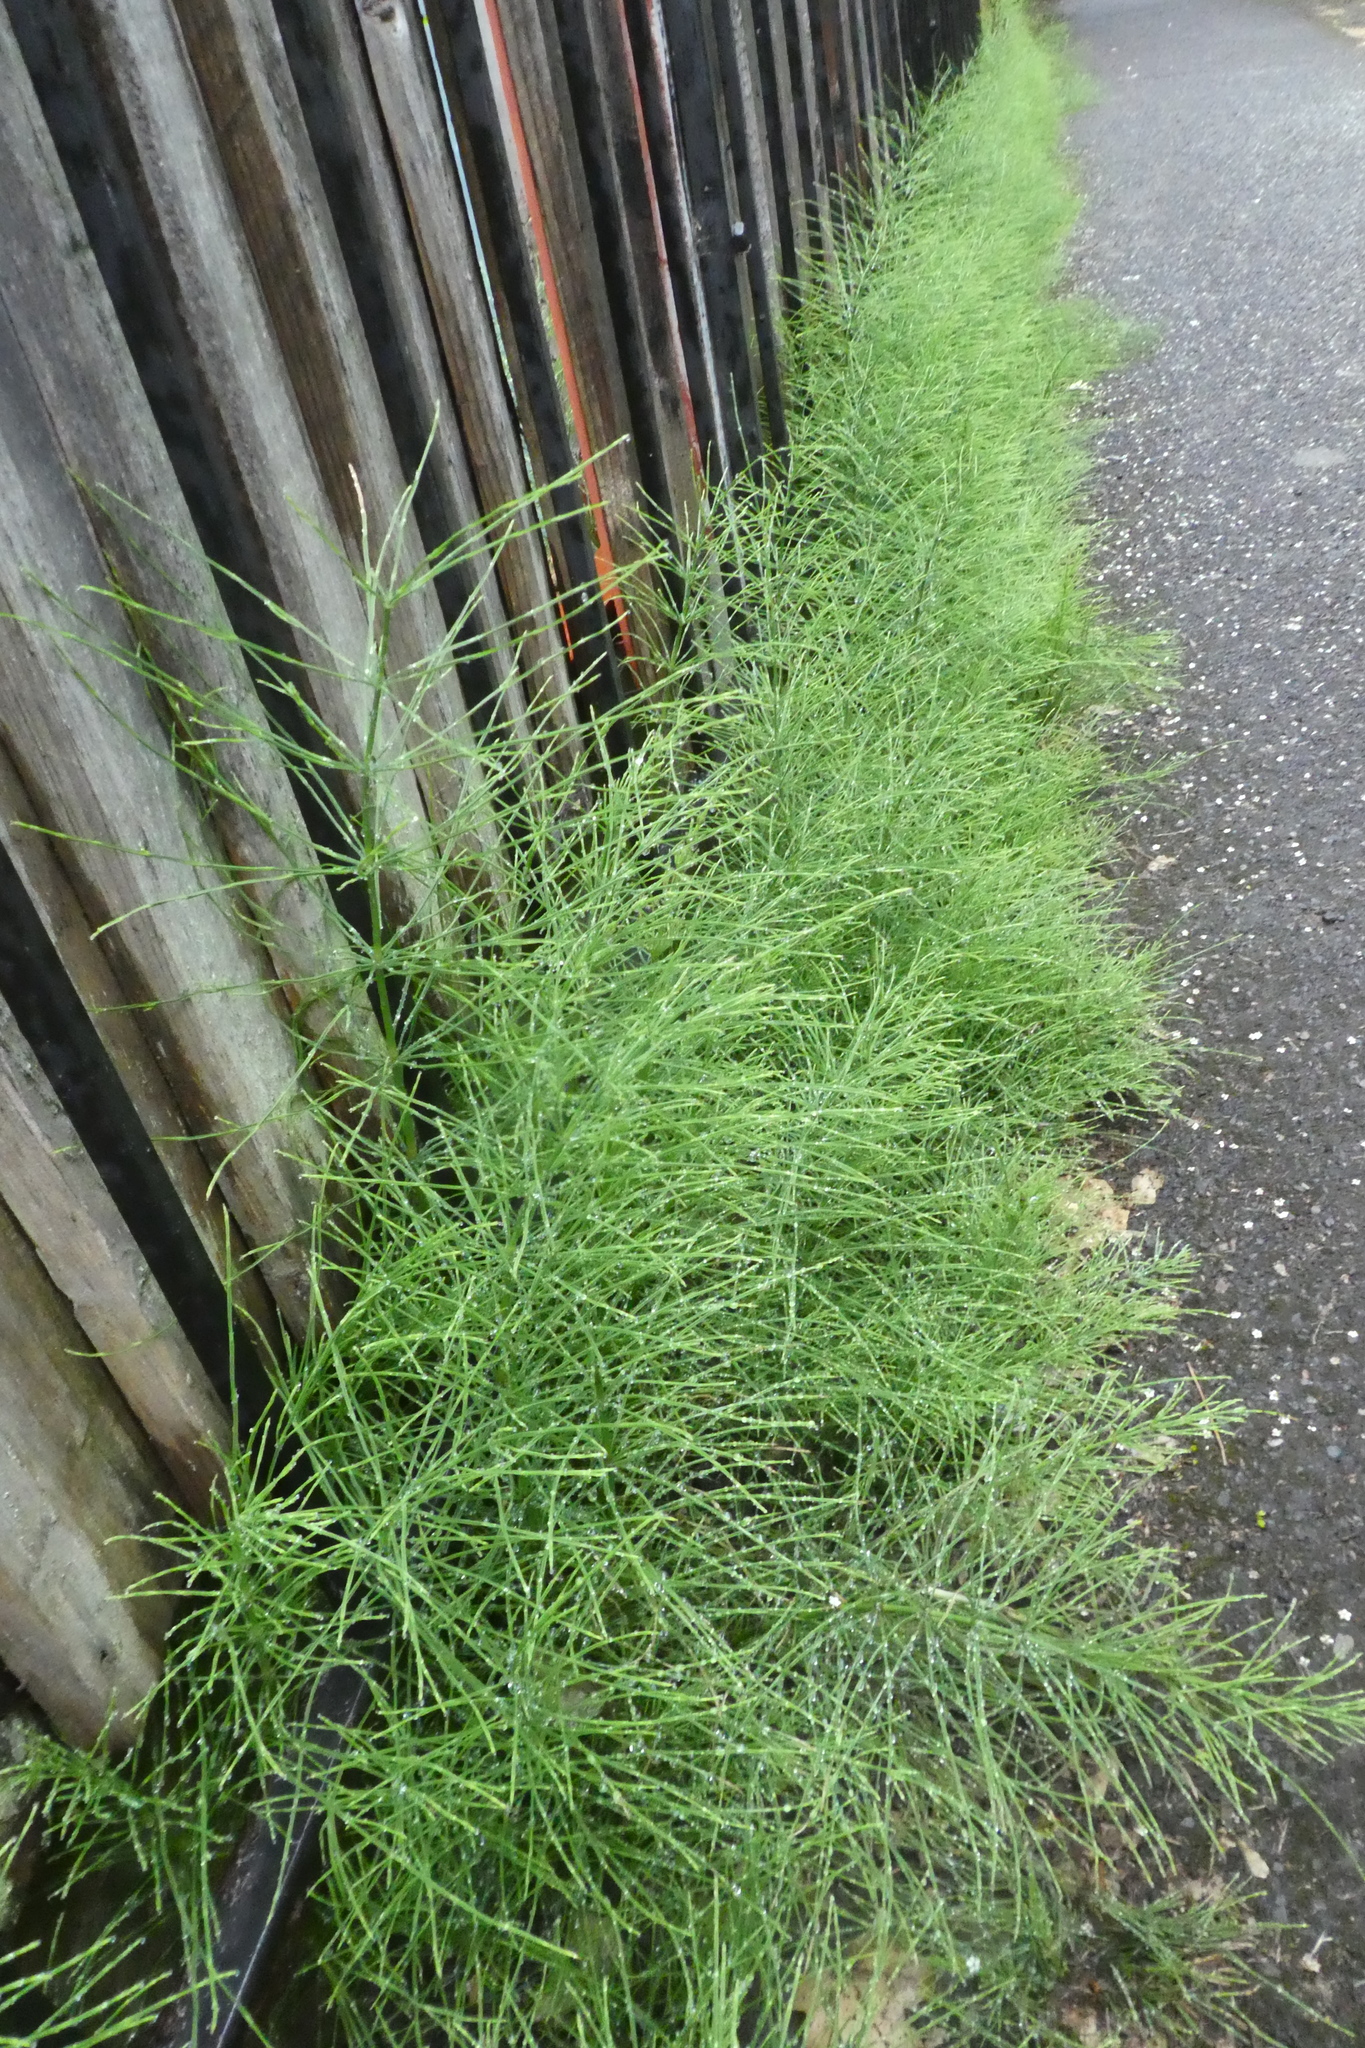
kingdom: Plantae
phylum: Tracheophyta
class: Polypodiopsida
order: Equisetales
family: Equisetaceae
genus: Equisetum
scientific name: Equisetum arvense
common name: Field horsetail
